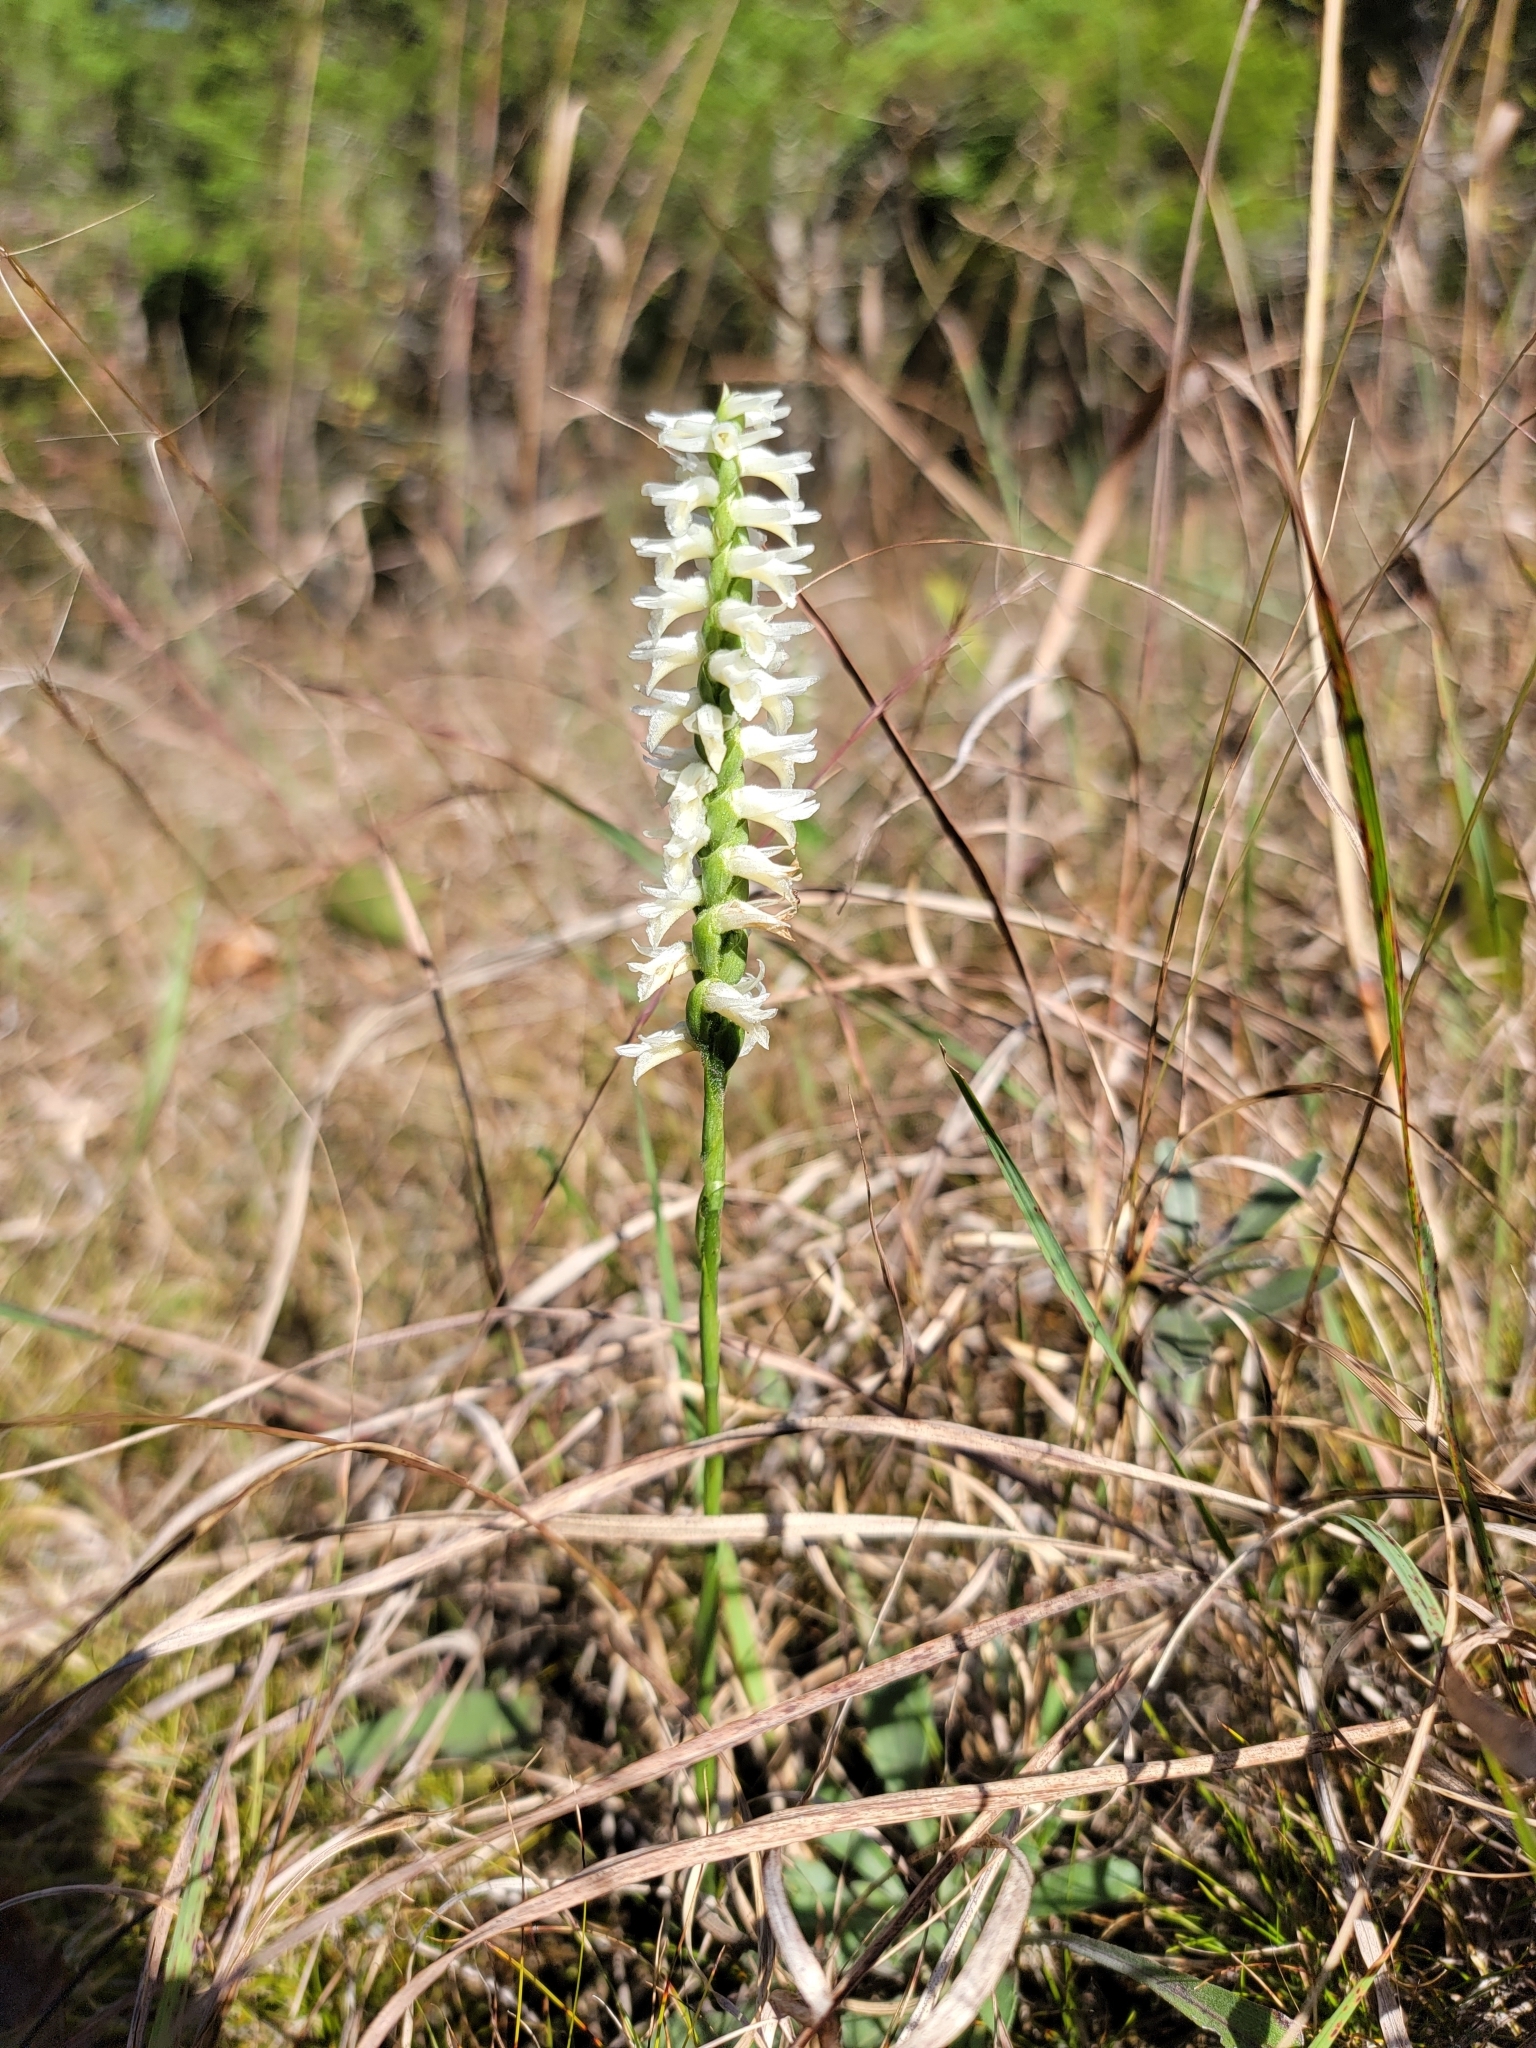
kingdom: Plantae
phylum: Tracheophyta
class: Liliopsida
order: Asparagales
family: Orchidaceae
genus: Spiranthes
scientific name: Spiranthes magnicamporum
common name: Great plains ladies'-tresses
